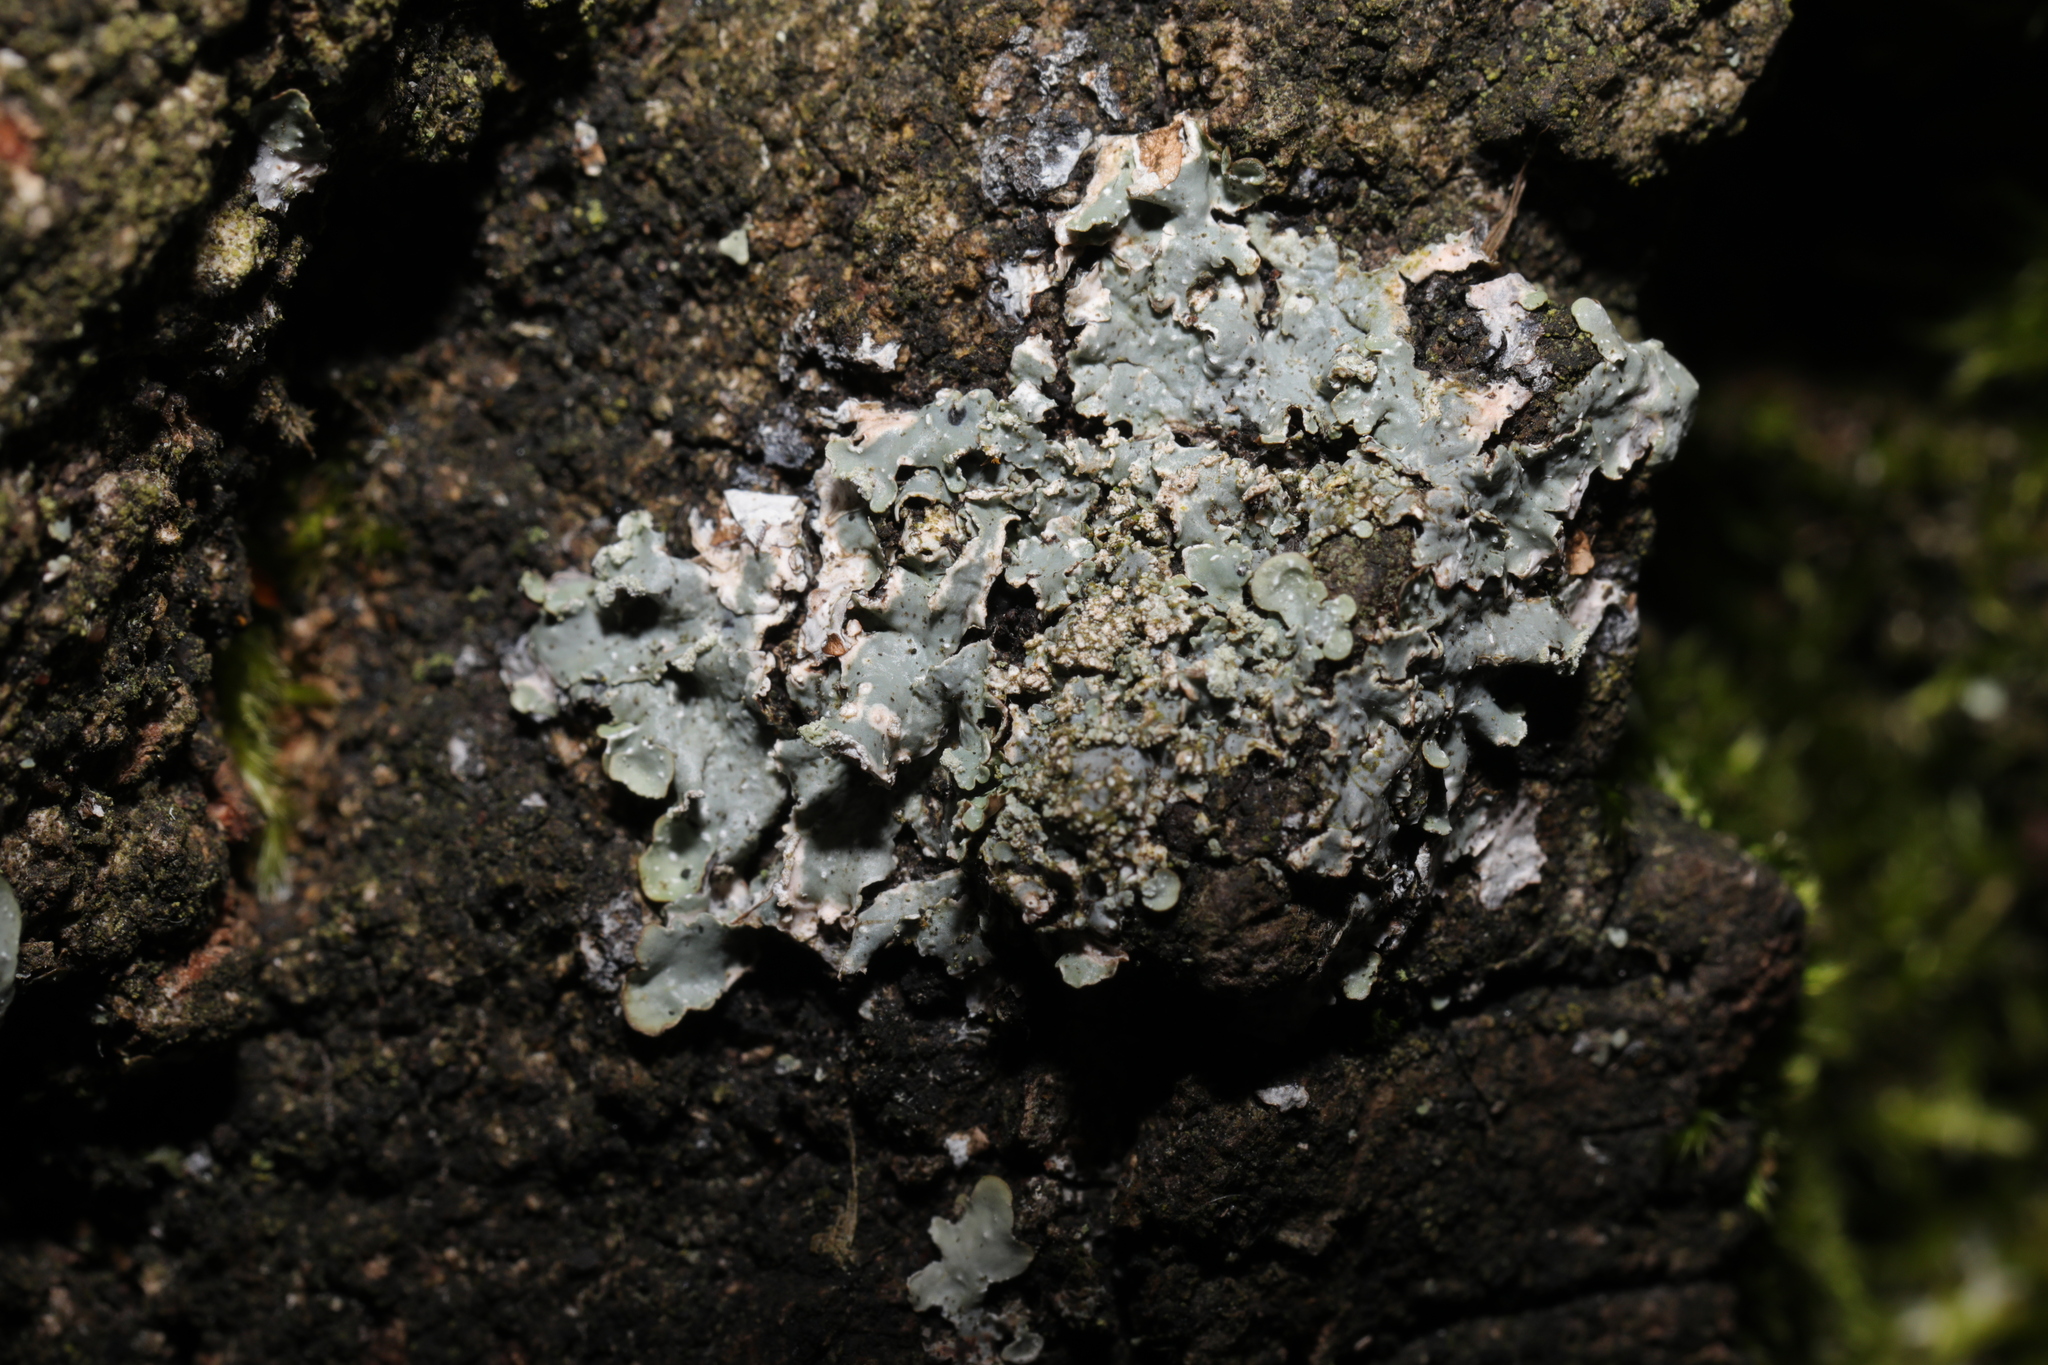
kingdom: Fungi
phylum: Ascomycota
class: Lecanoromycetes
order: Lecanorales
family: Parmeliaceae
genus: Punctelia
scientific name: Punctelia subrudecta
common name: Powdered speckled shield lichen
